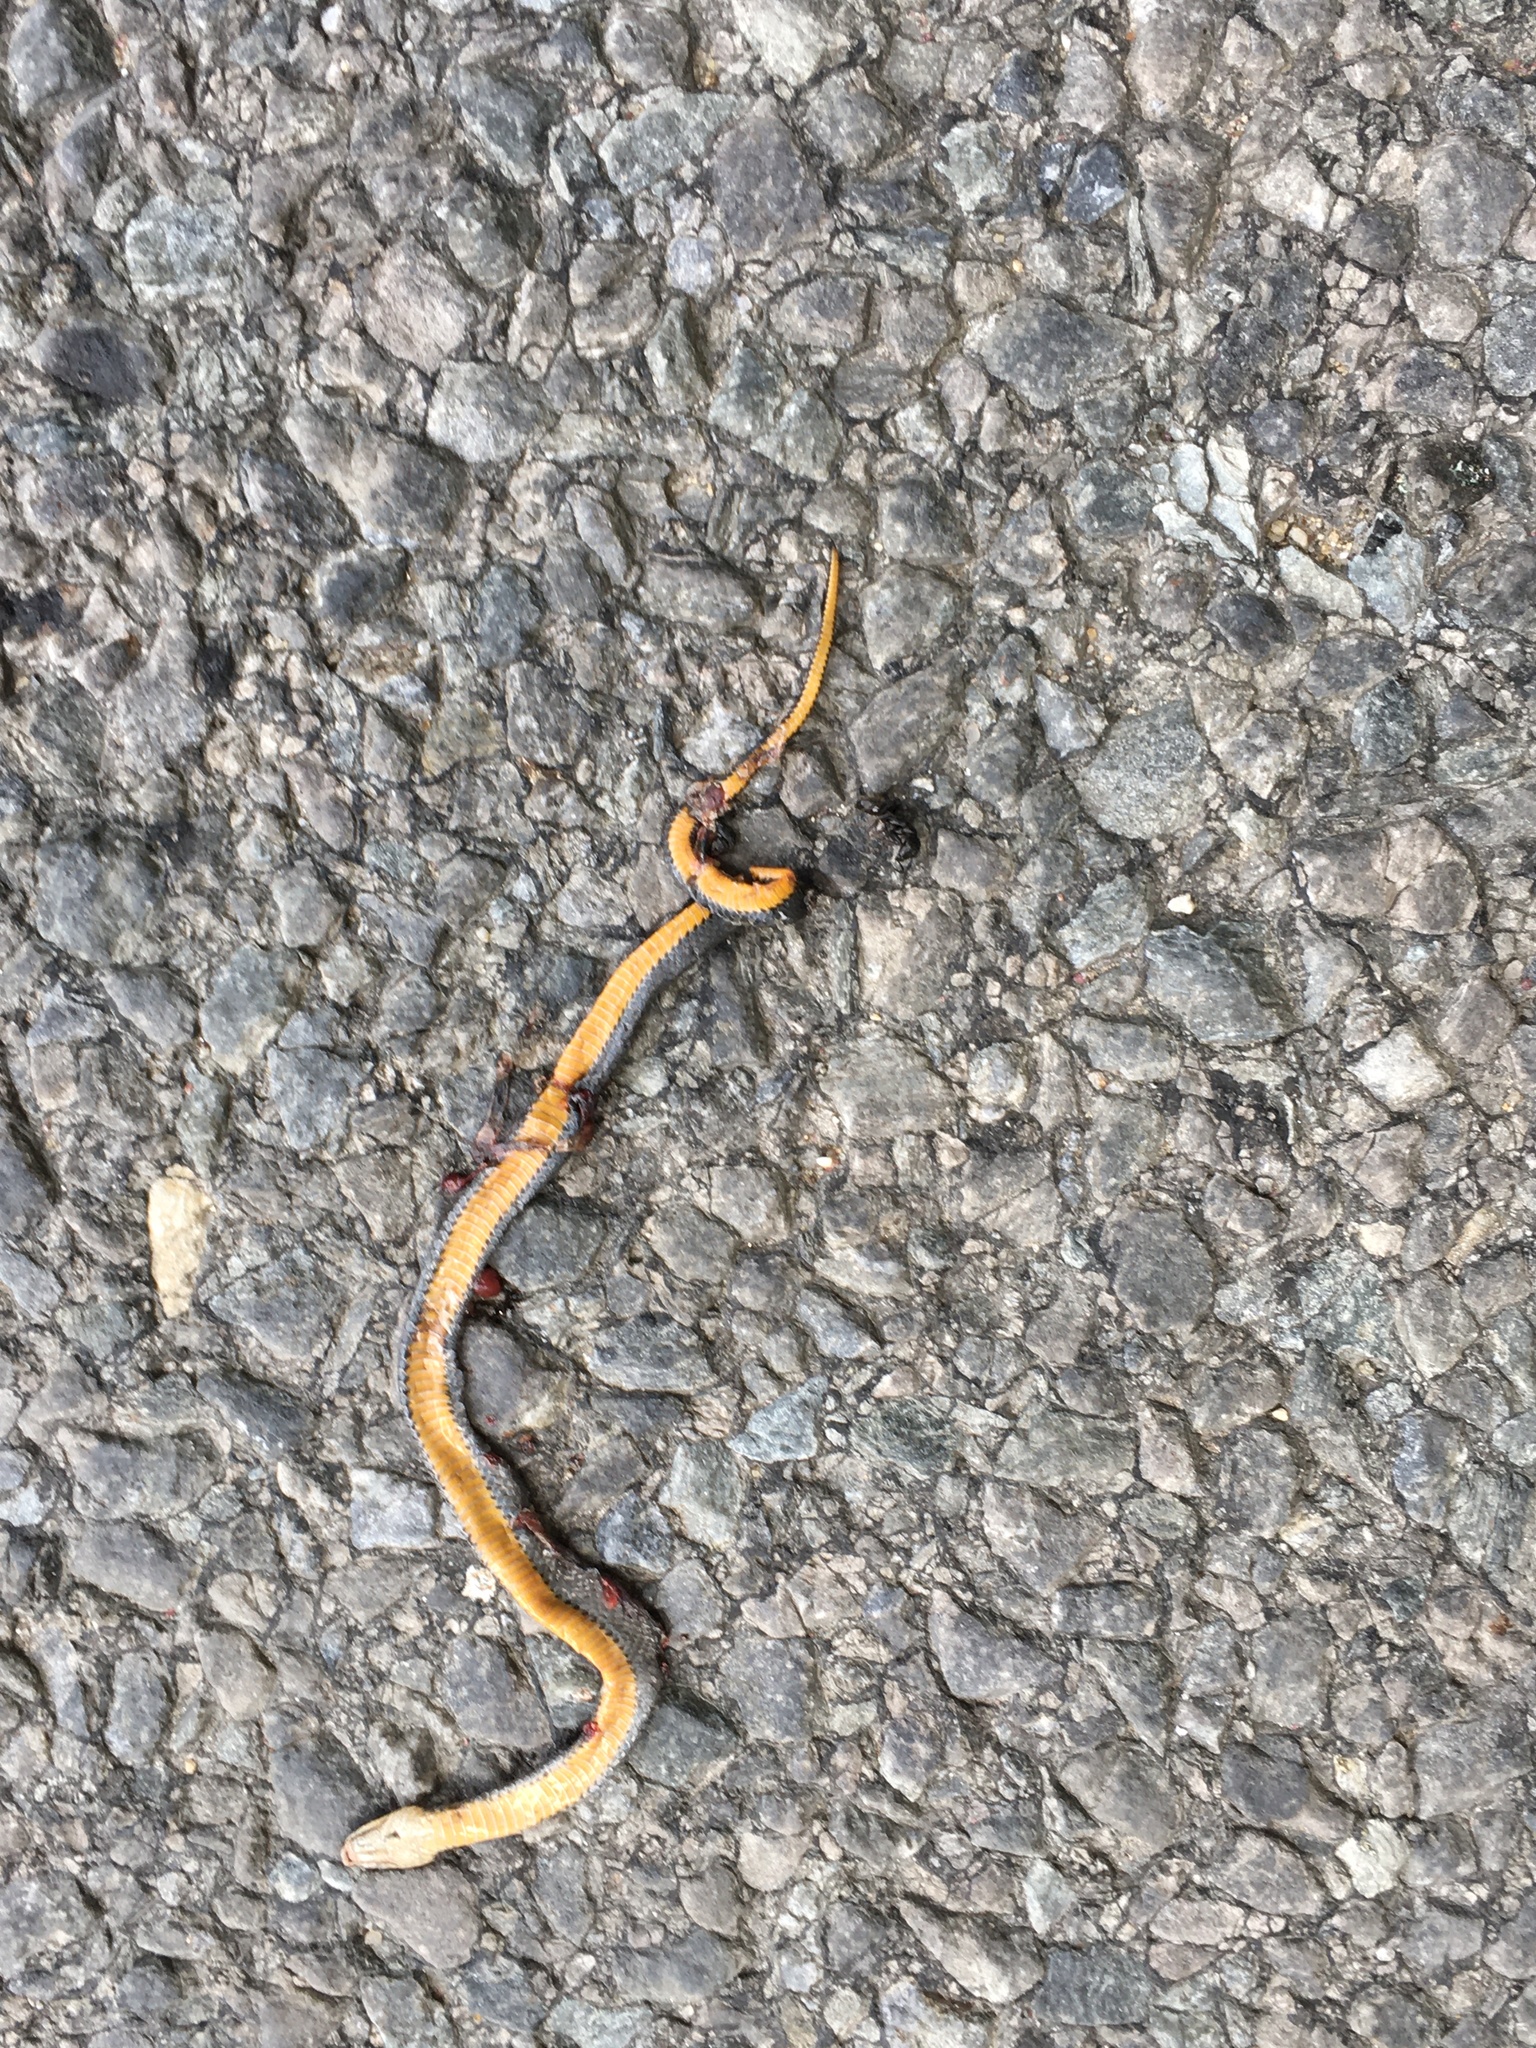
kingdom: Animalia
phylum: Chordata
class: Squamata
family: Colubridae
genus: Diadophis
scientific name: Diadophis punctatus
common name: Ringneck snake
